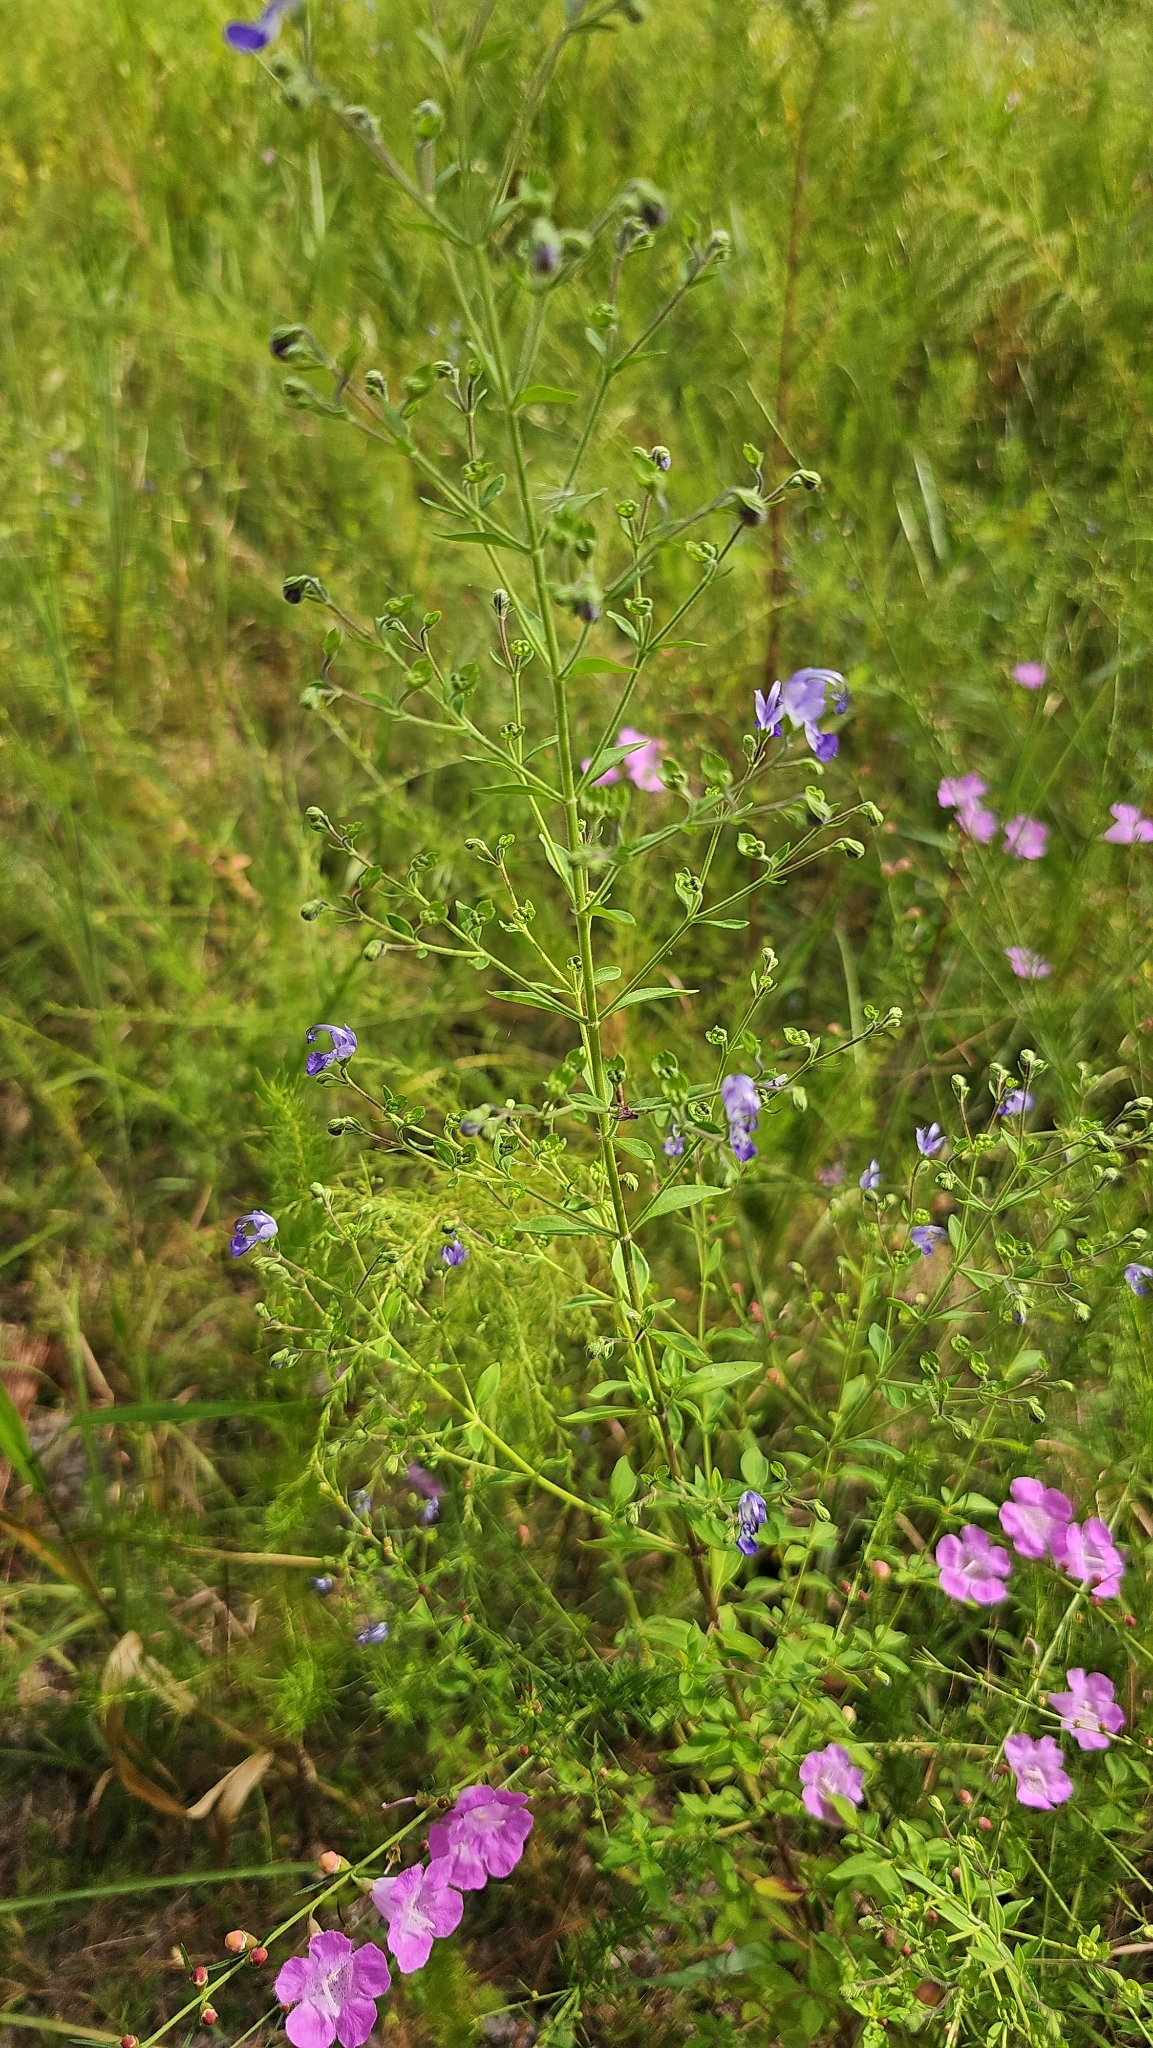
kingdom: Plantae
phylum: Tracheophyta
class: Magnoliopsida
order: Lamiales
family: Lamiaceae
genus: Trichostema
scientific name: Trichostema dichotomum
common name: Bastard pennyroyal
